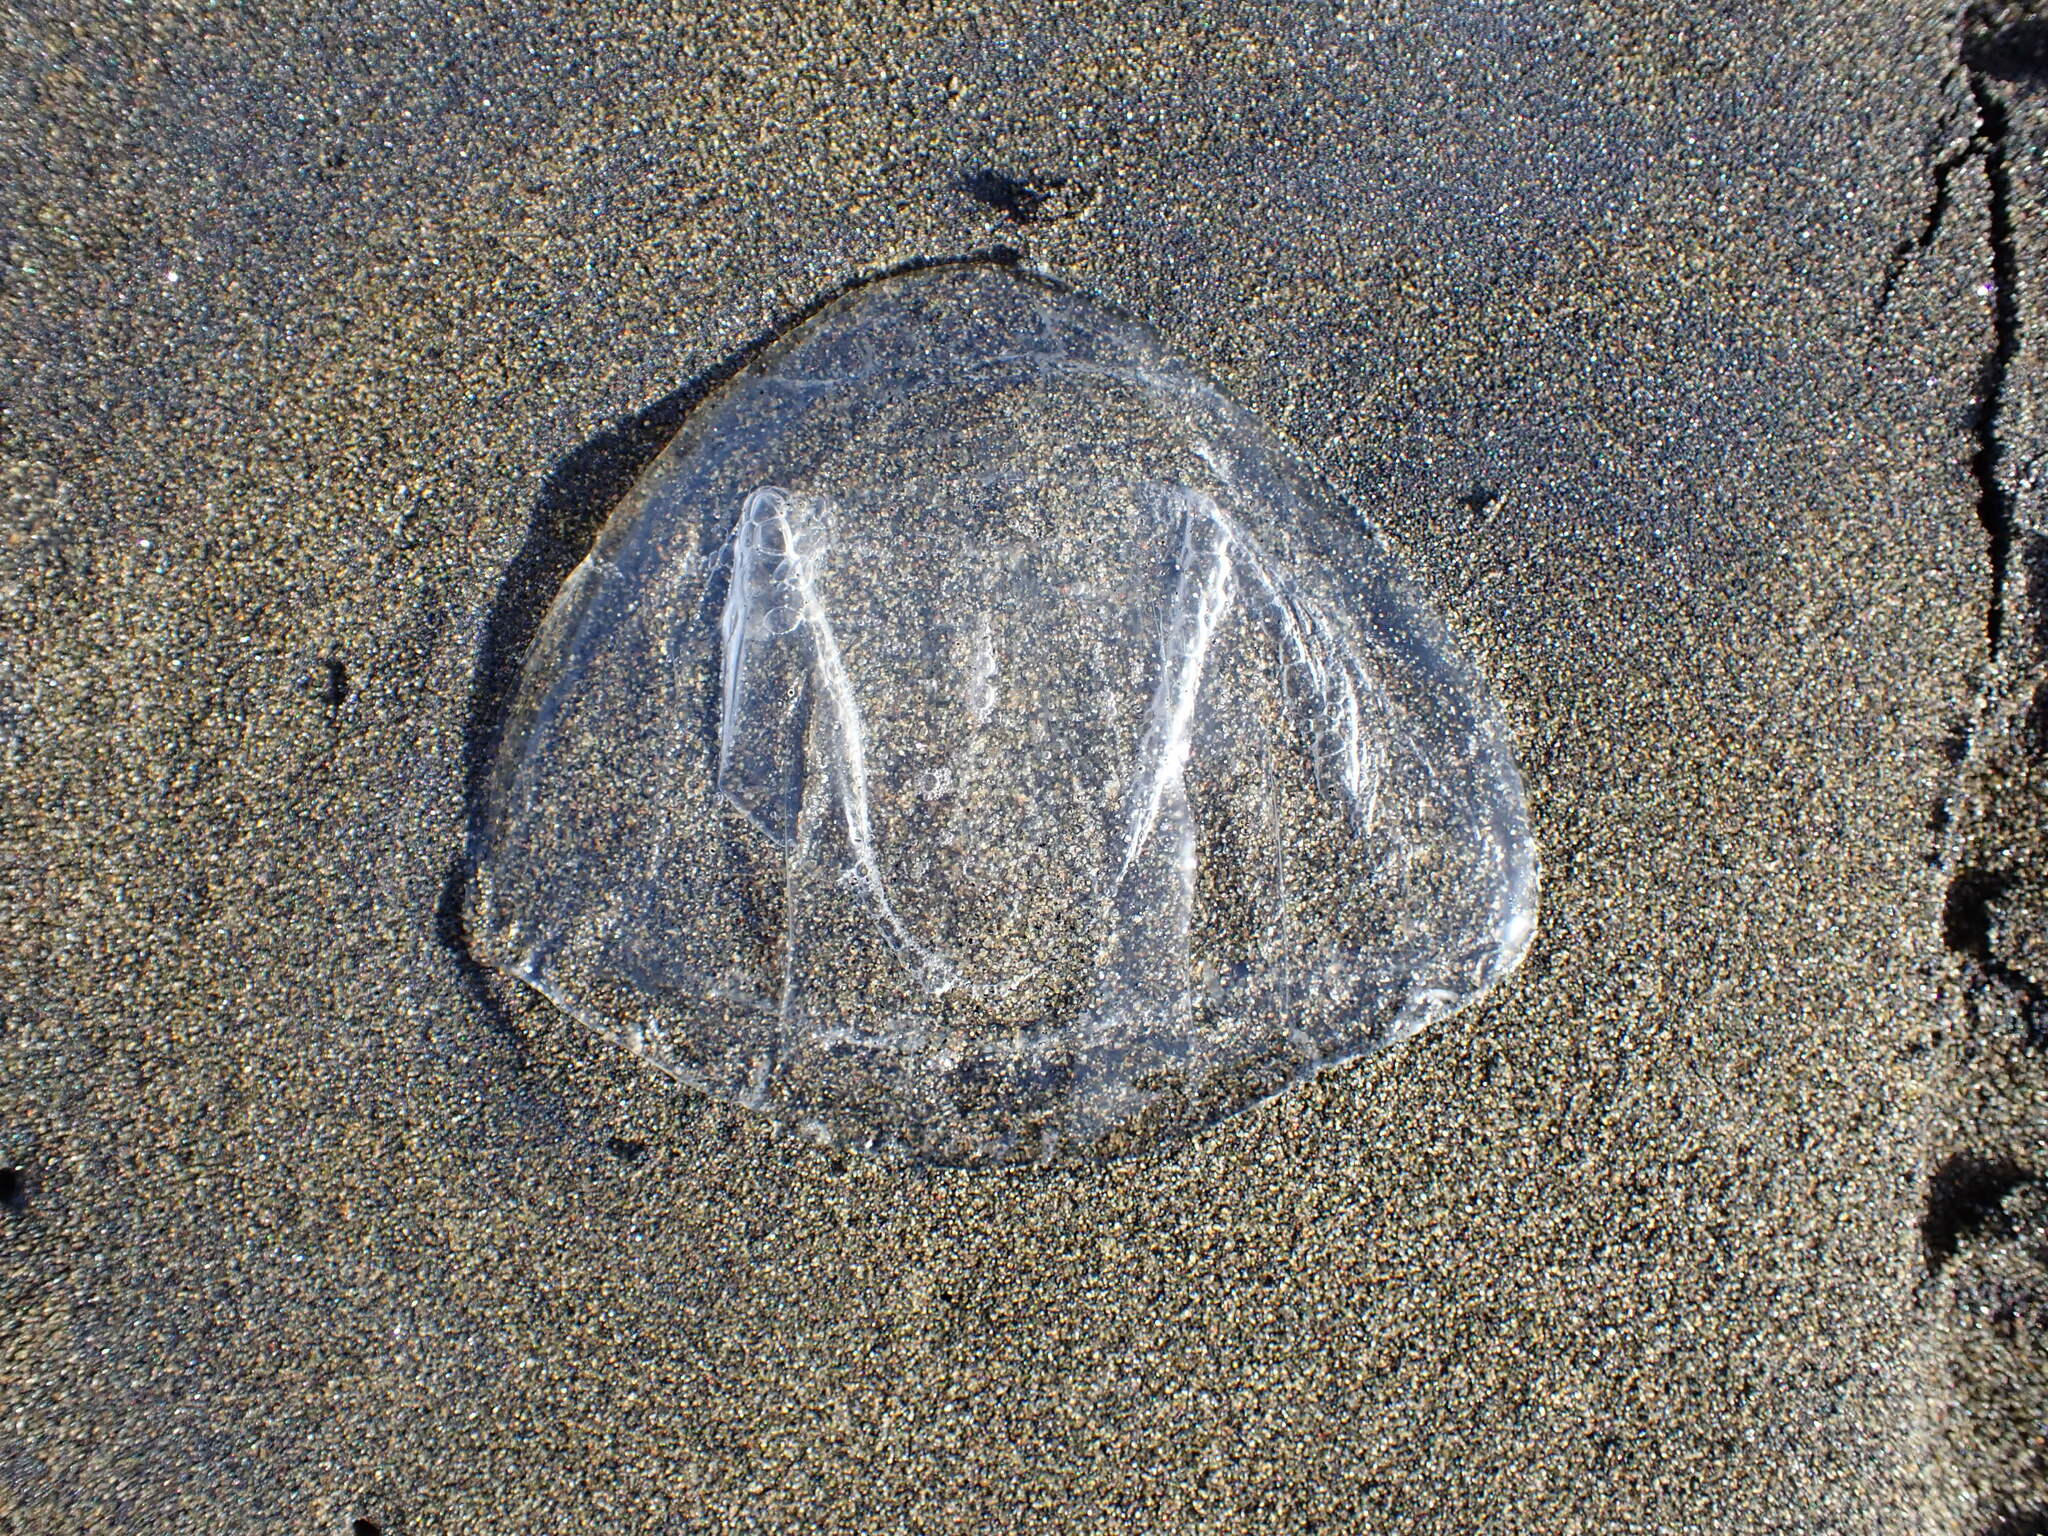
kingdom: Animalia
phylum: Cnidaria
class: Hydrozoa
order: Anthoathecata
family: Corynidae
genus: Scrippsia
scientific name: Scrippsia pacifica
